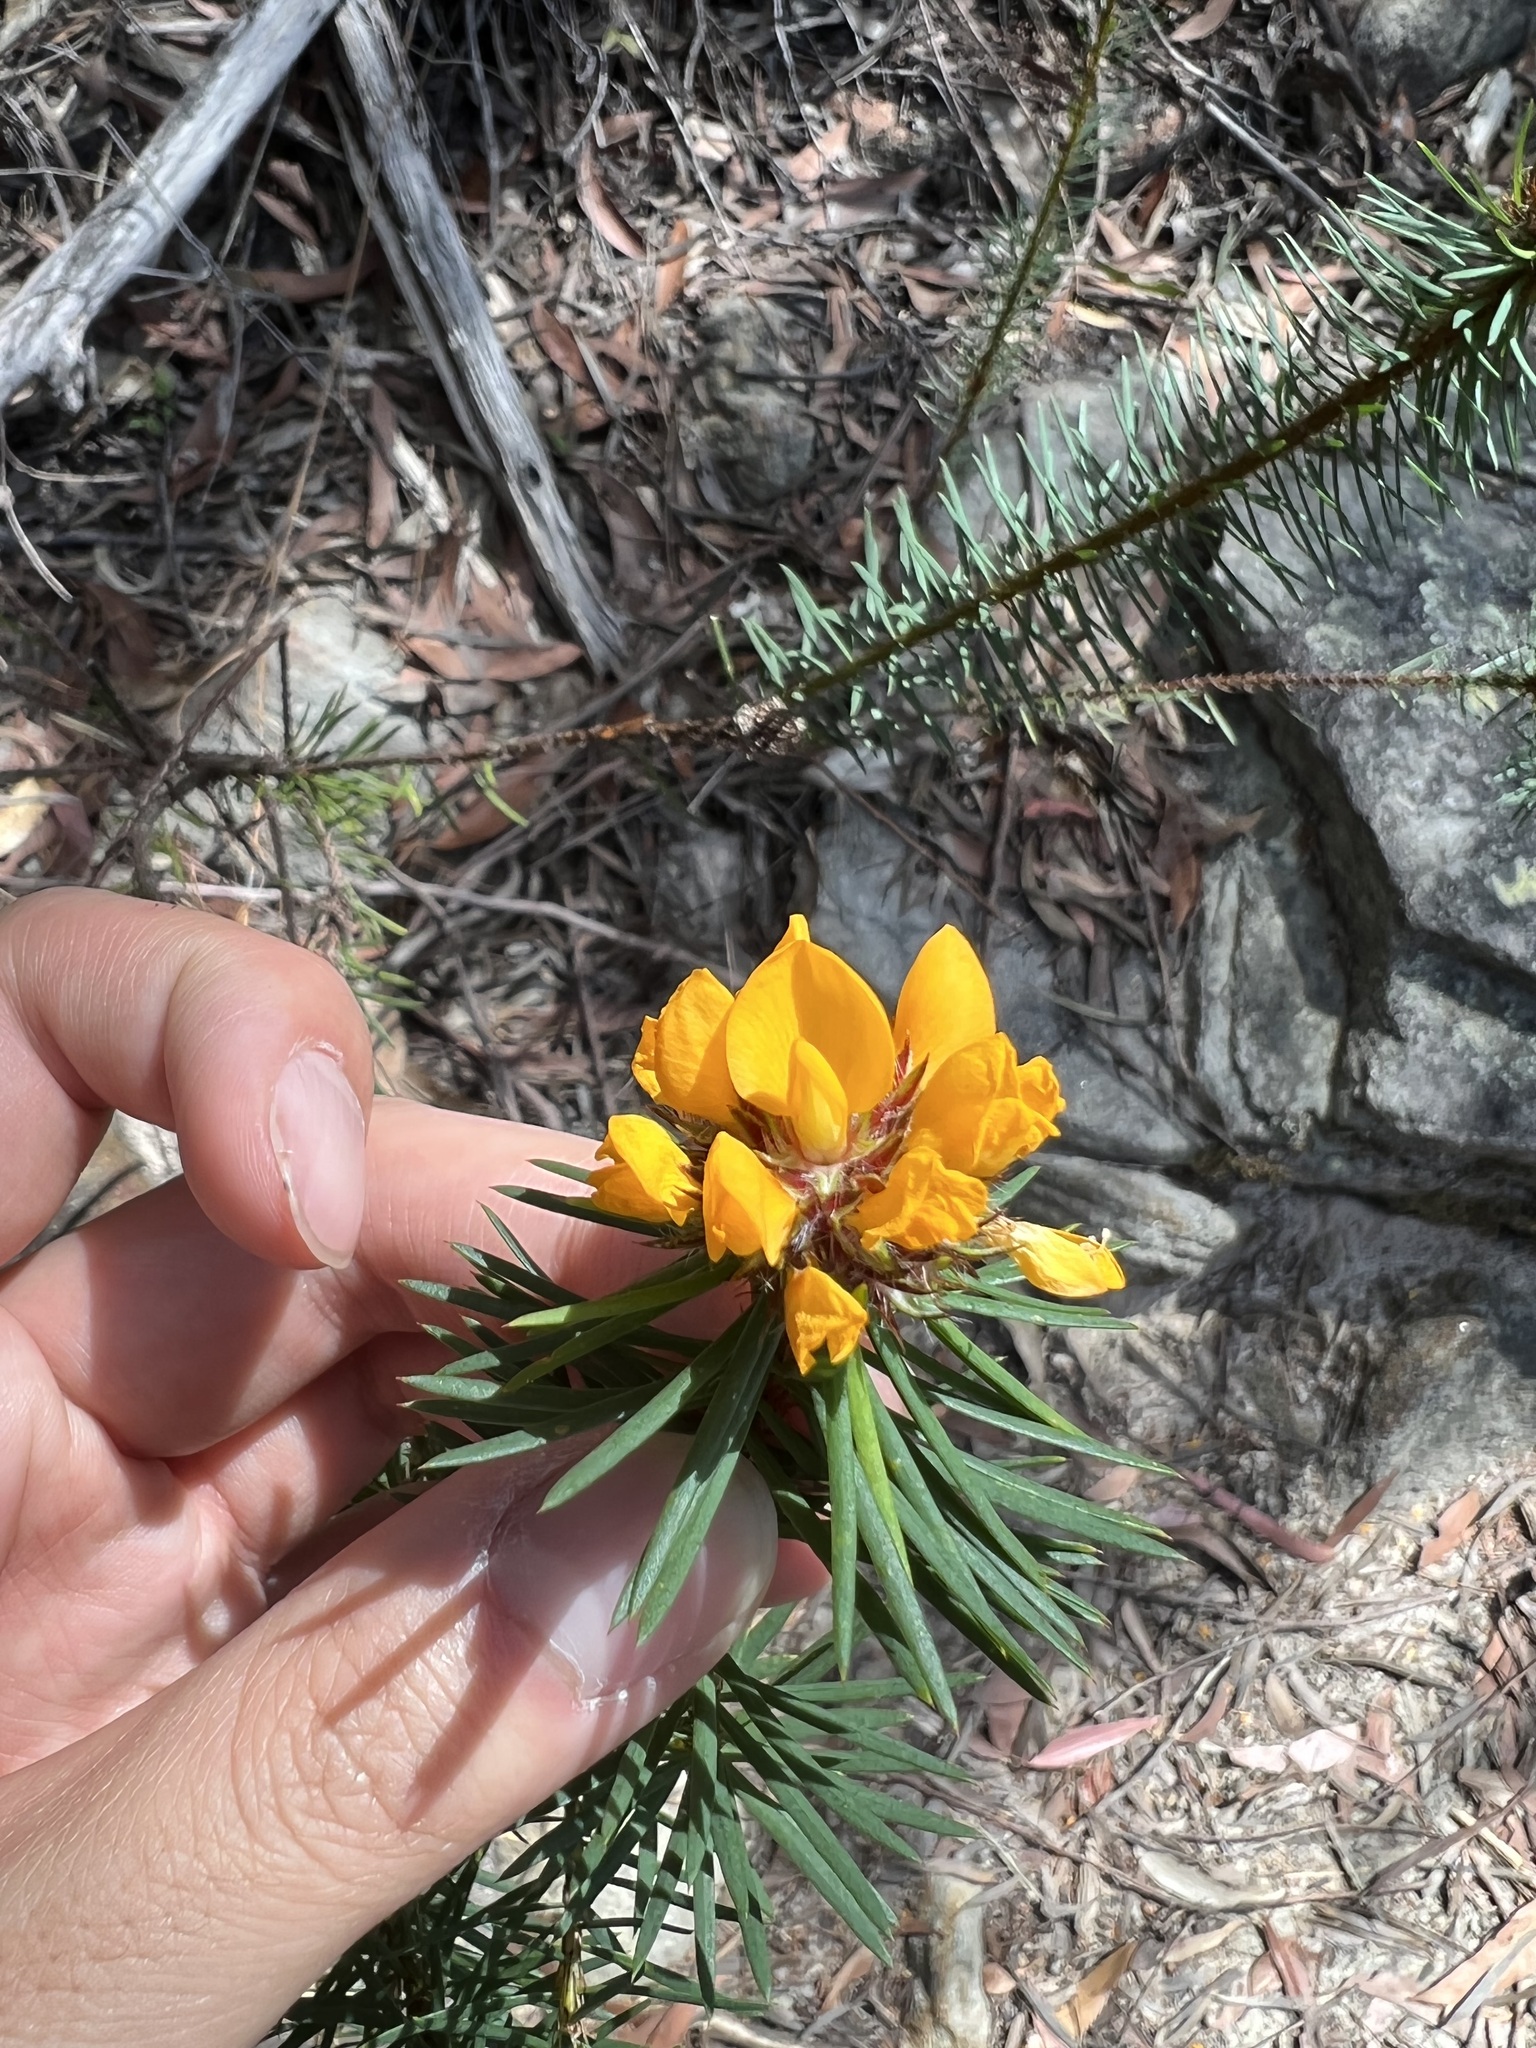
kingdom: Plantae
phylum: Tracheophyta
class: Magnoliopsida
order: Fabales
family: Fabaceae
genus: Pultenaea
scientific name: Pultenaea stipularis
